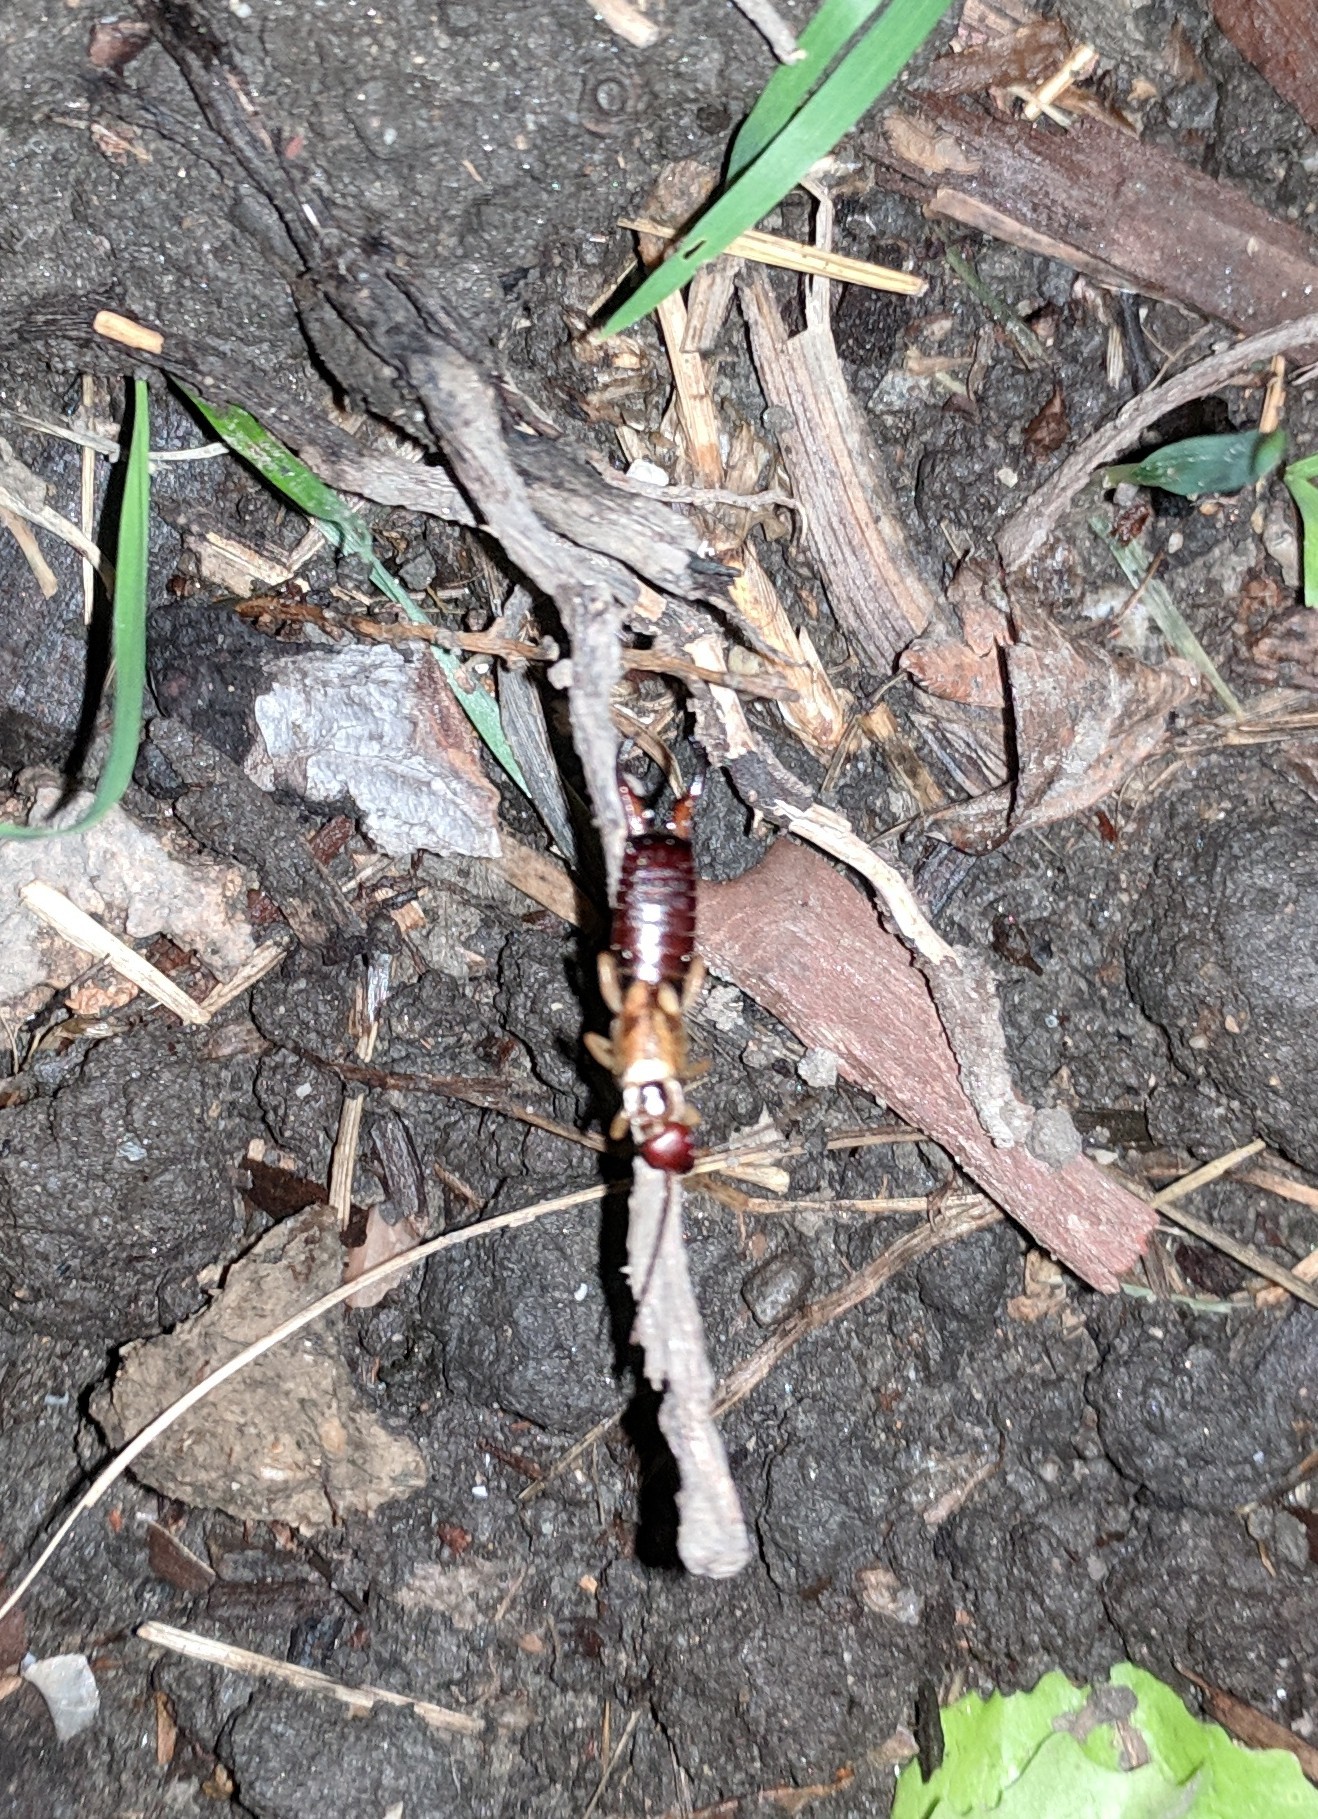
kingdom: Animalia
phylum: Arthropoda
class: Insecta
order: Dermaptera
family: Forficulidae
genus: Forficula
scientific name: Forficula
